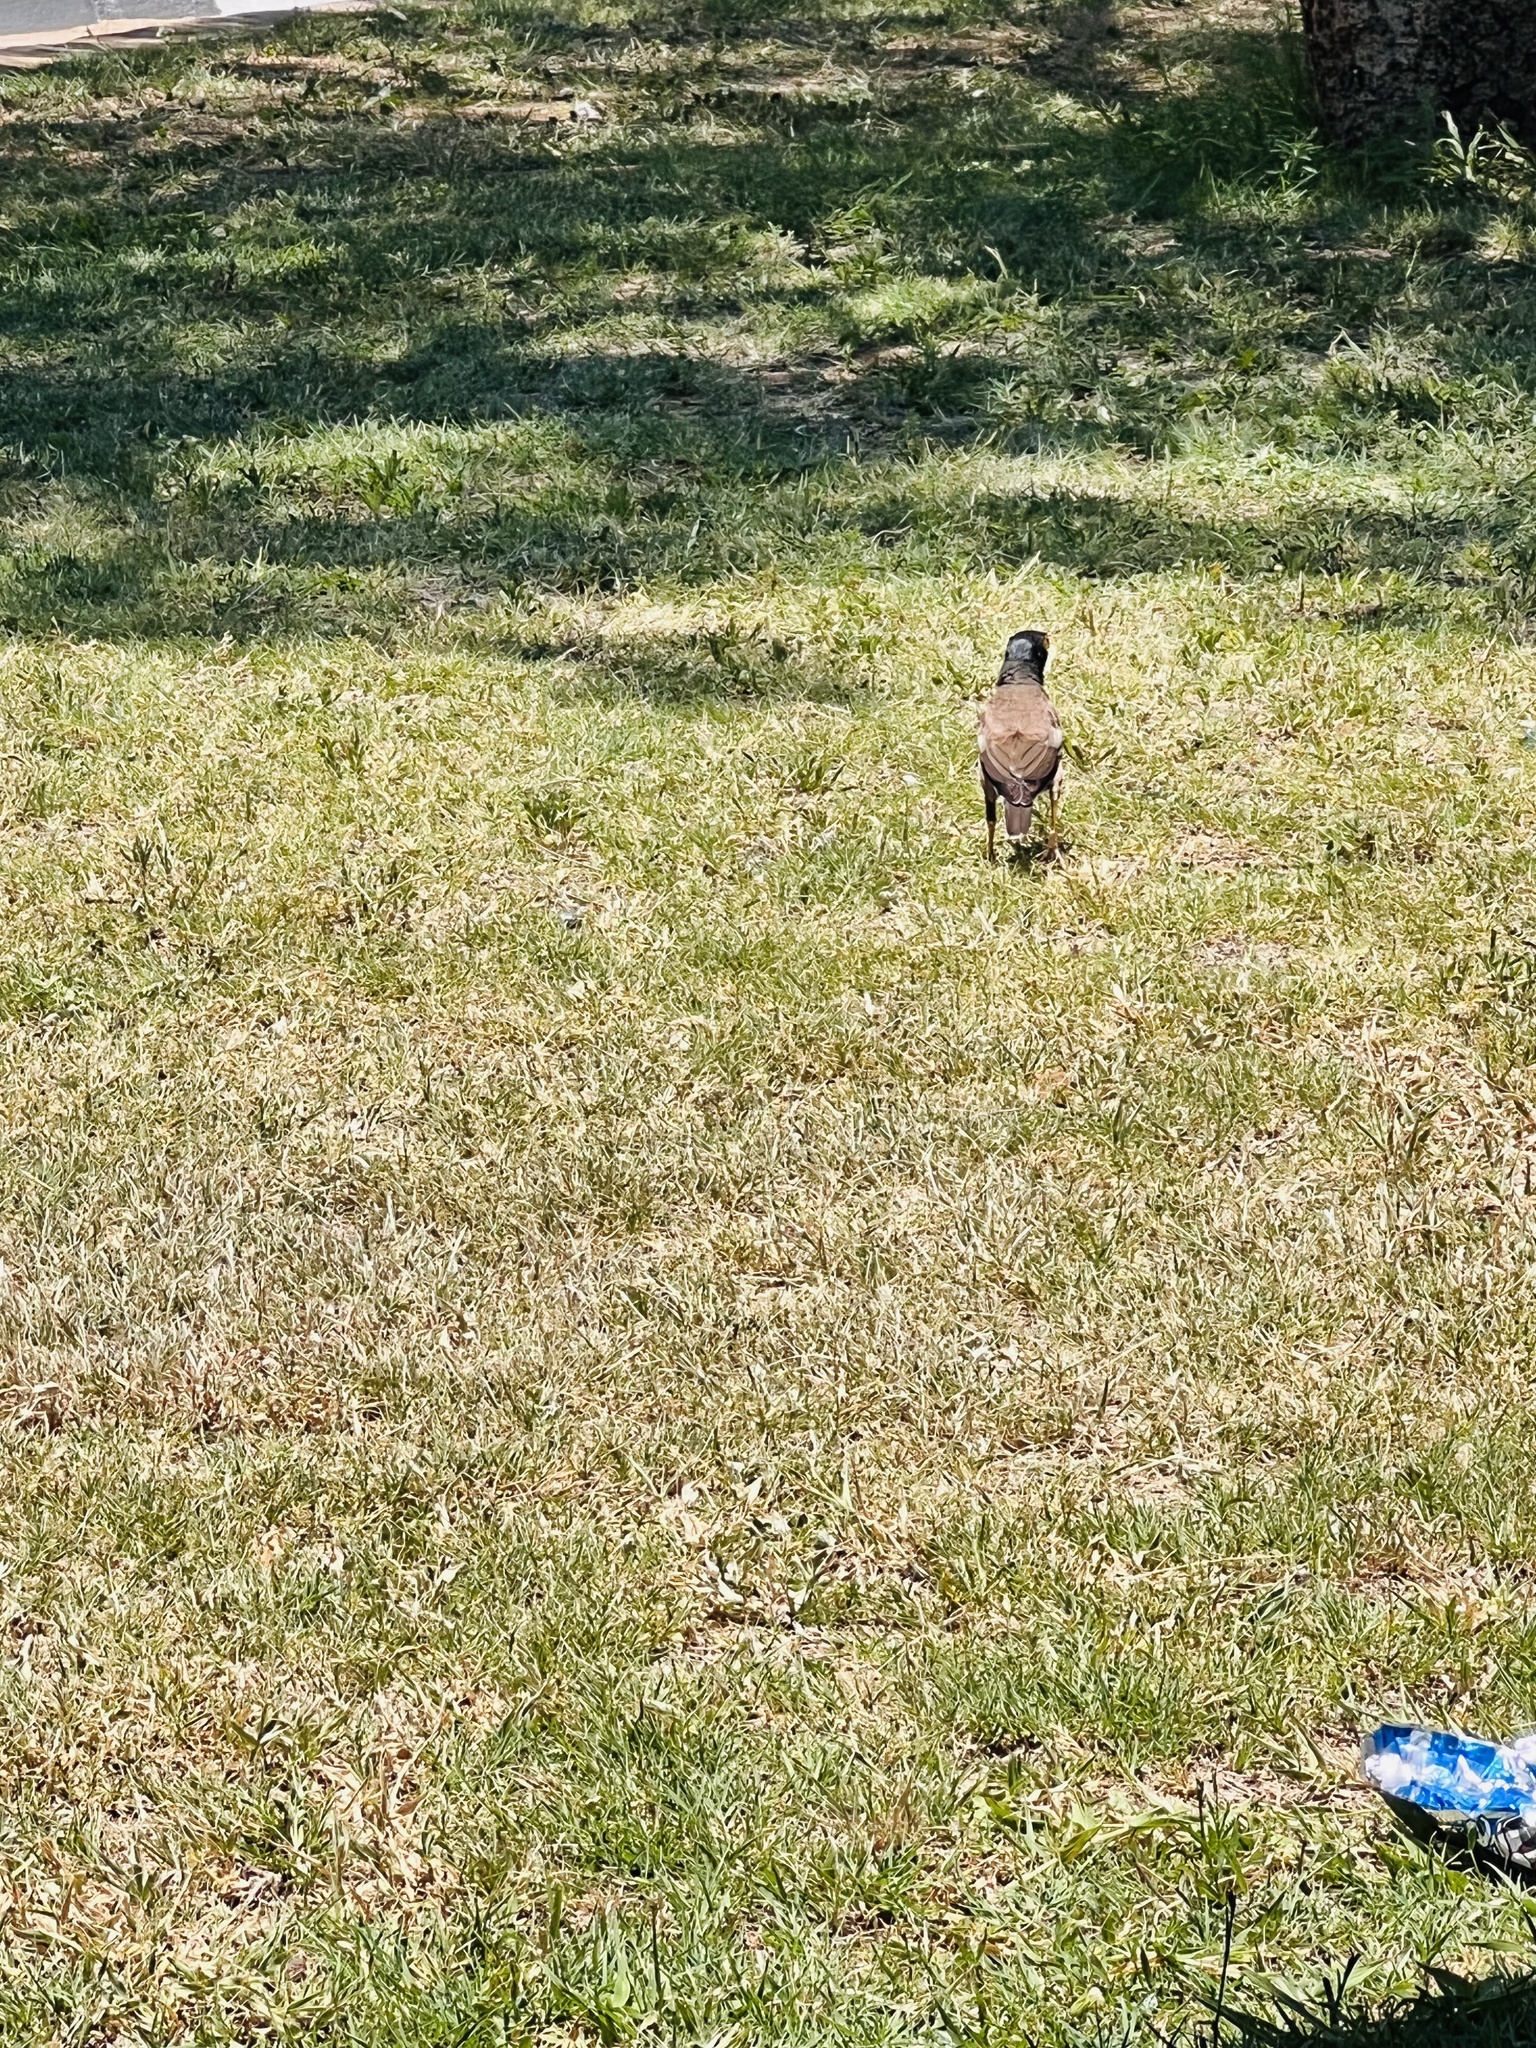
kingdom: Animalia
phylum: Chordata
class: Aves
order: Passeriformes
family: Sturnidae
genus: Acridotheres
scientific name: Acridotheres tristis
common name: Common myna
